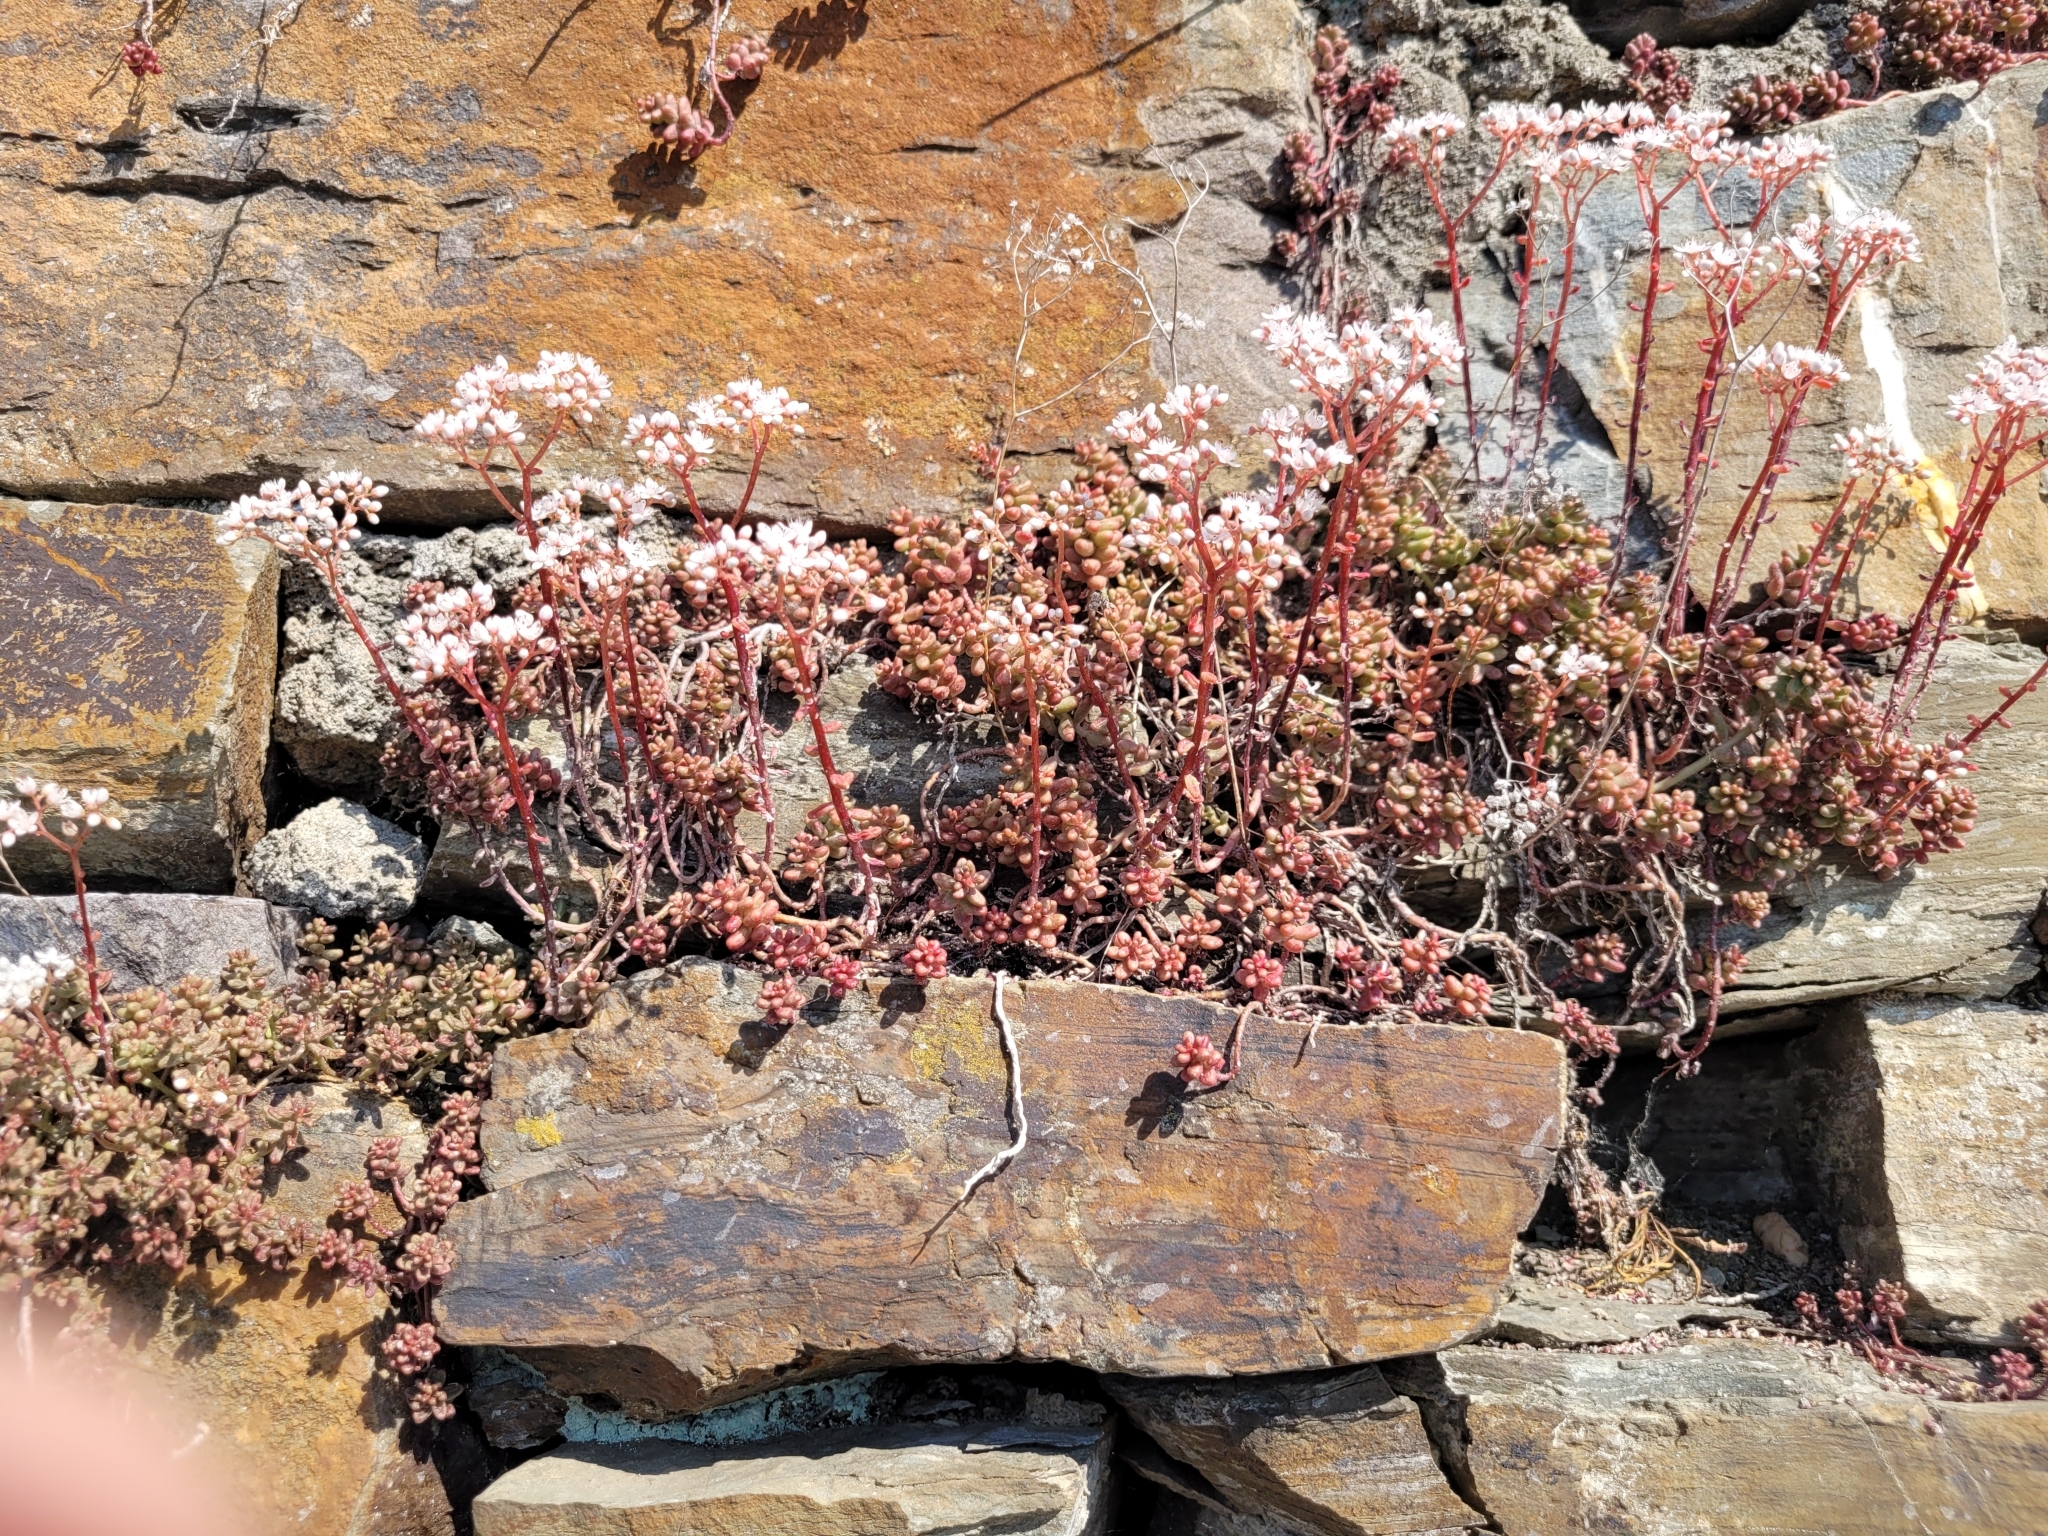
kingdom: Plantae
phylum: Tracheophyta
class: Magnoliopsida
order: Saxifragales
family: Crassulaceae
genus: Sedum
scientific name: Sedum album
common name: White stonecrop
